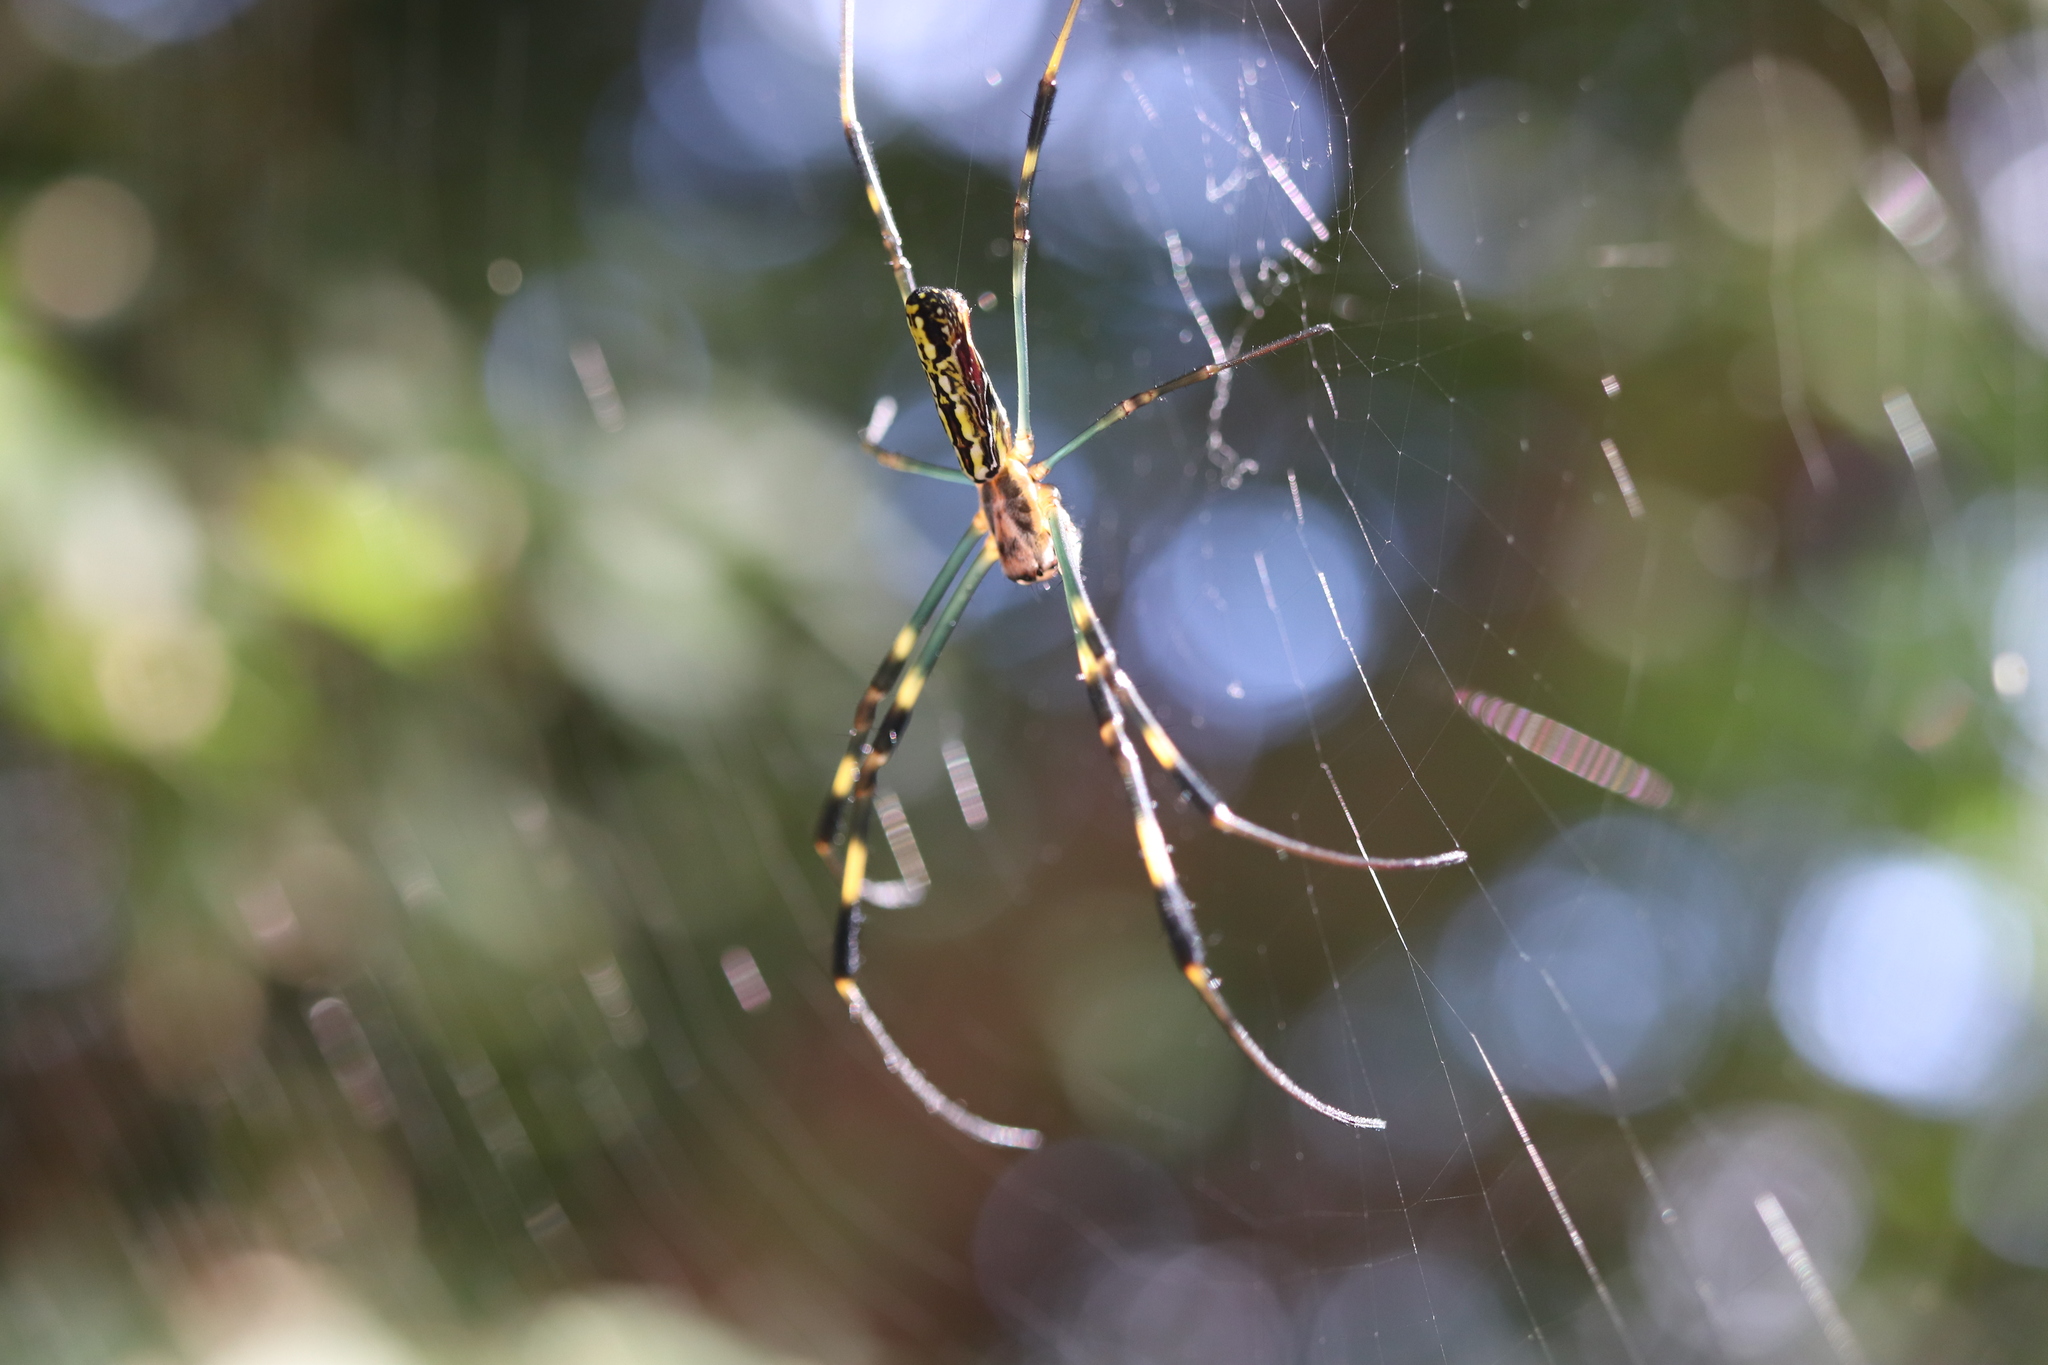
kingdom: Animalia
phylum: Arthropoda
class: Arachnida
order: Araneae
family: Araneidae
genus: Trichonephila
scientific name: Trichonephila clavata
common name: Jorō spider
